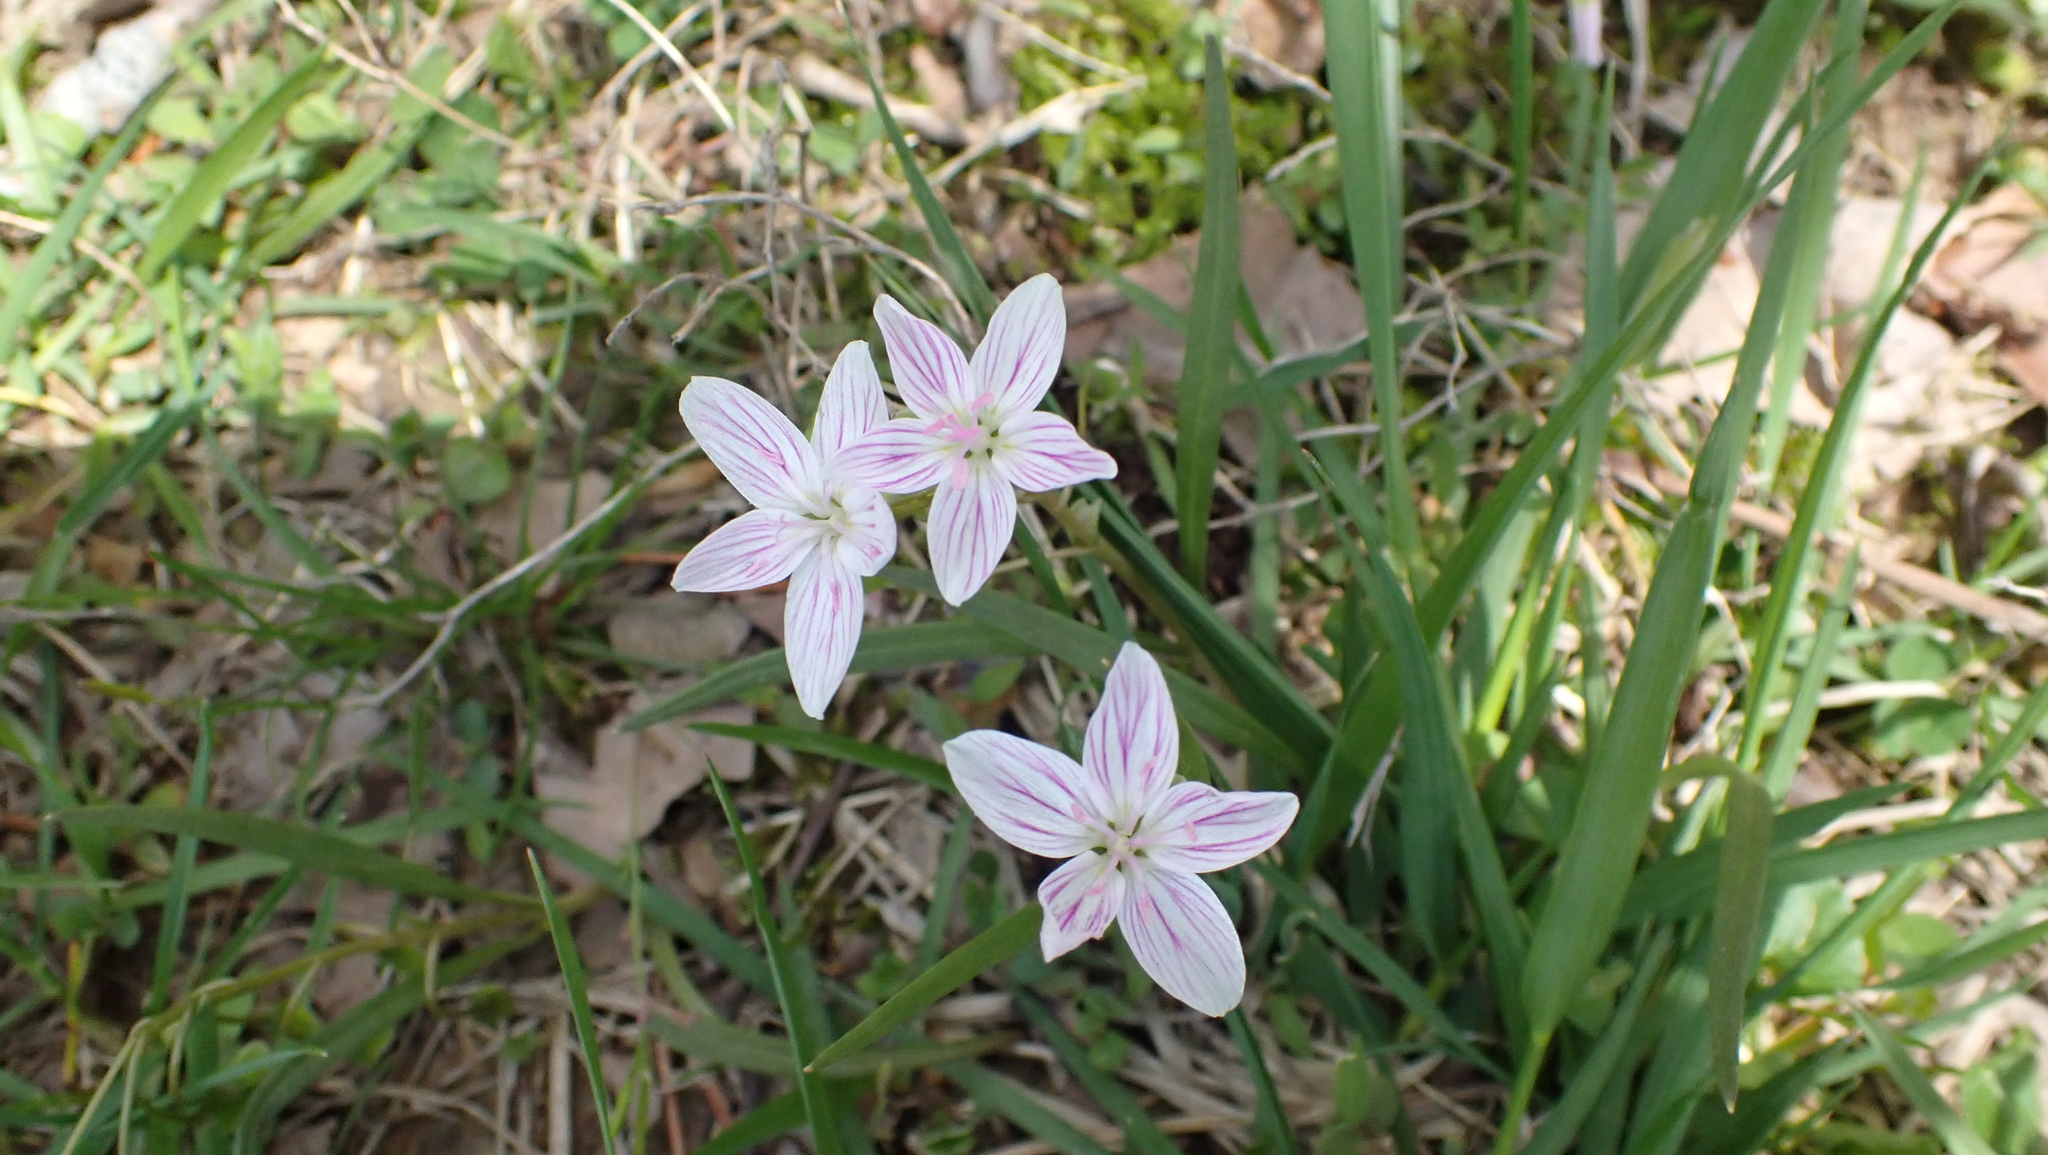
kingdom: Plantae
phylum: Tracheophyta
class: Magnoliopsida
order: Caryophyllales
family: Montiaceae
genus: Claytonia
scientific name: Claytonia virginica
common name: Virginia springbeauty
